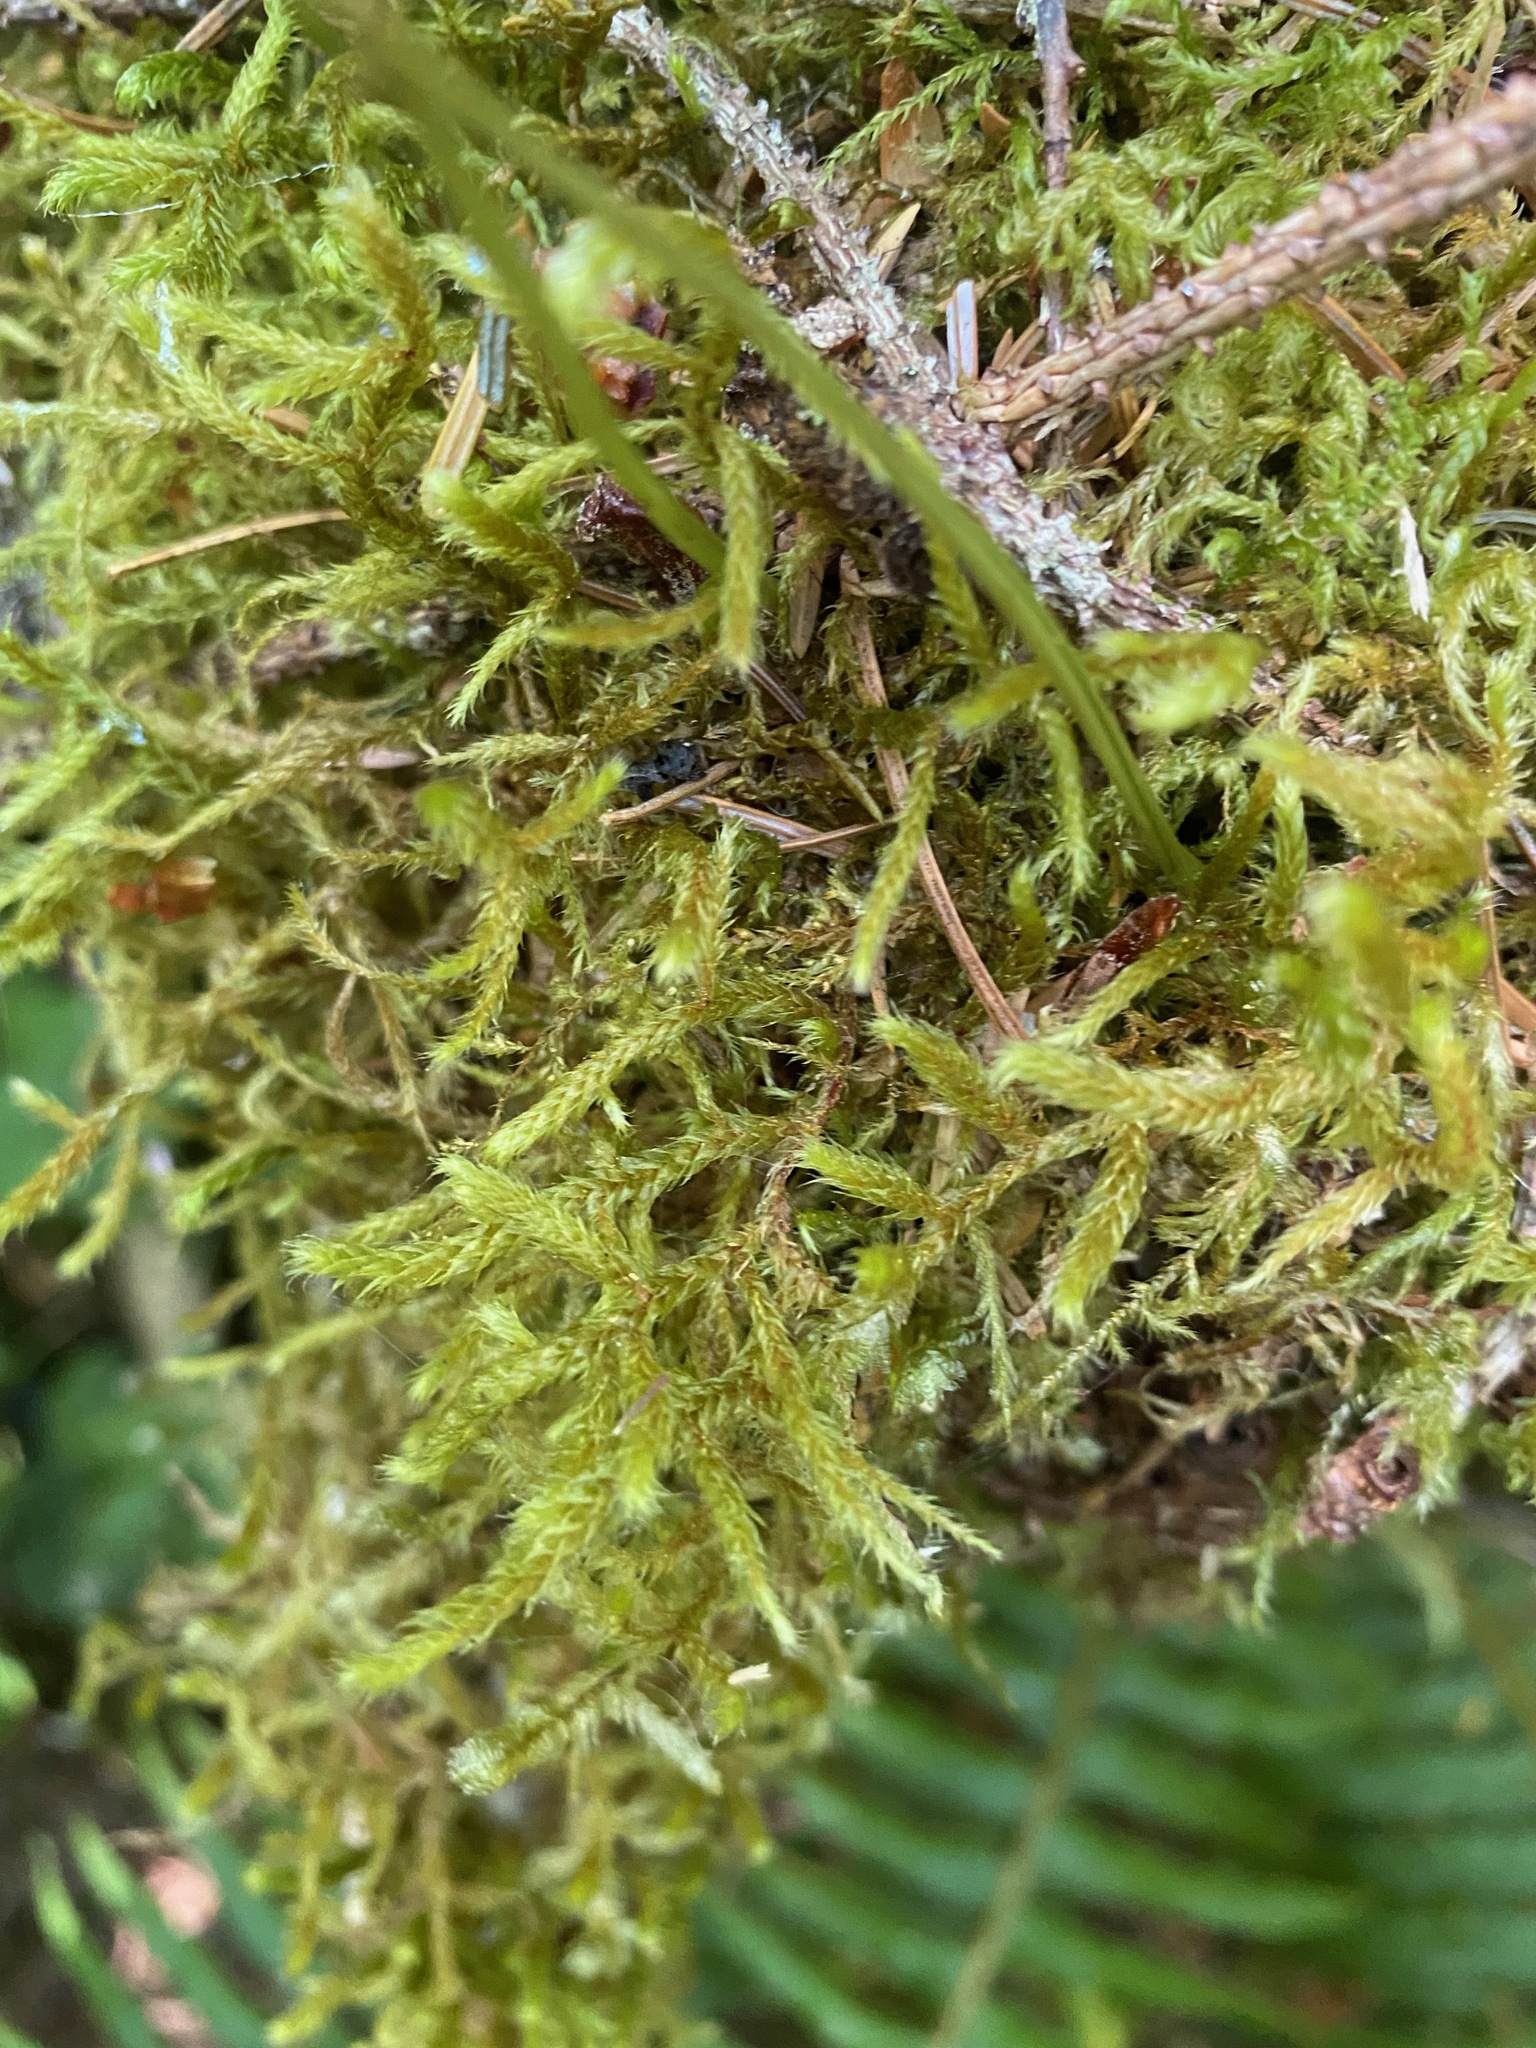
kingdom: Plantae
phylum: Bryophyta
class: Bryopsida
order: Hypnales
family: Antitrichiaceae
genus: Antitrichia
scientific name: Antitrichia curtipendula
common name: Pendulous wing-moss
